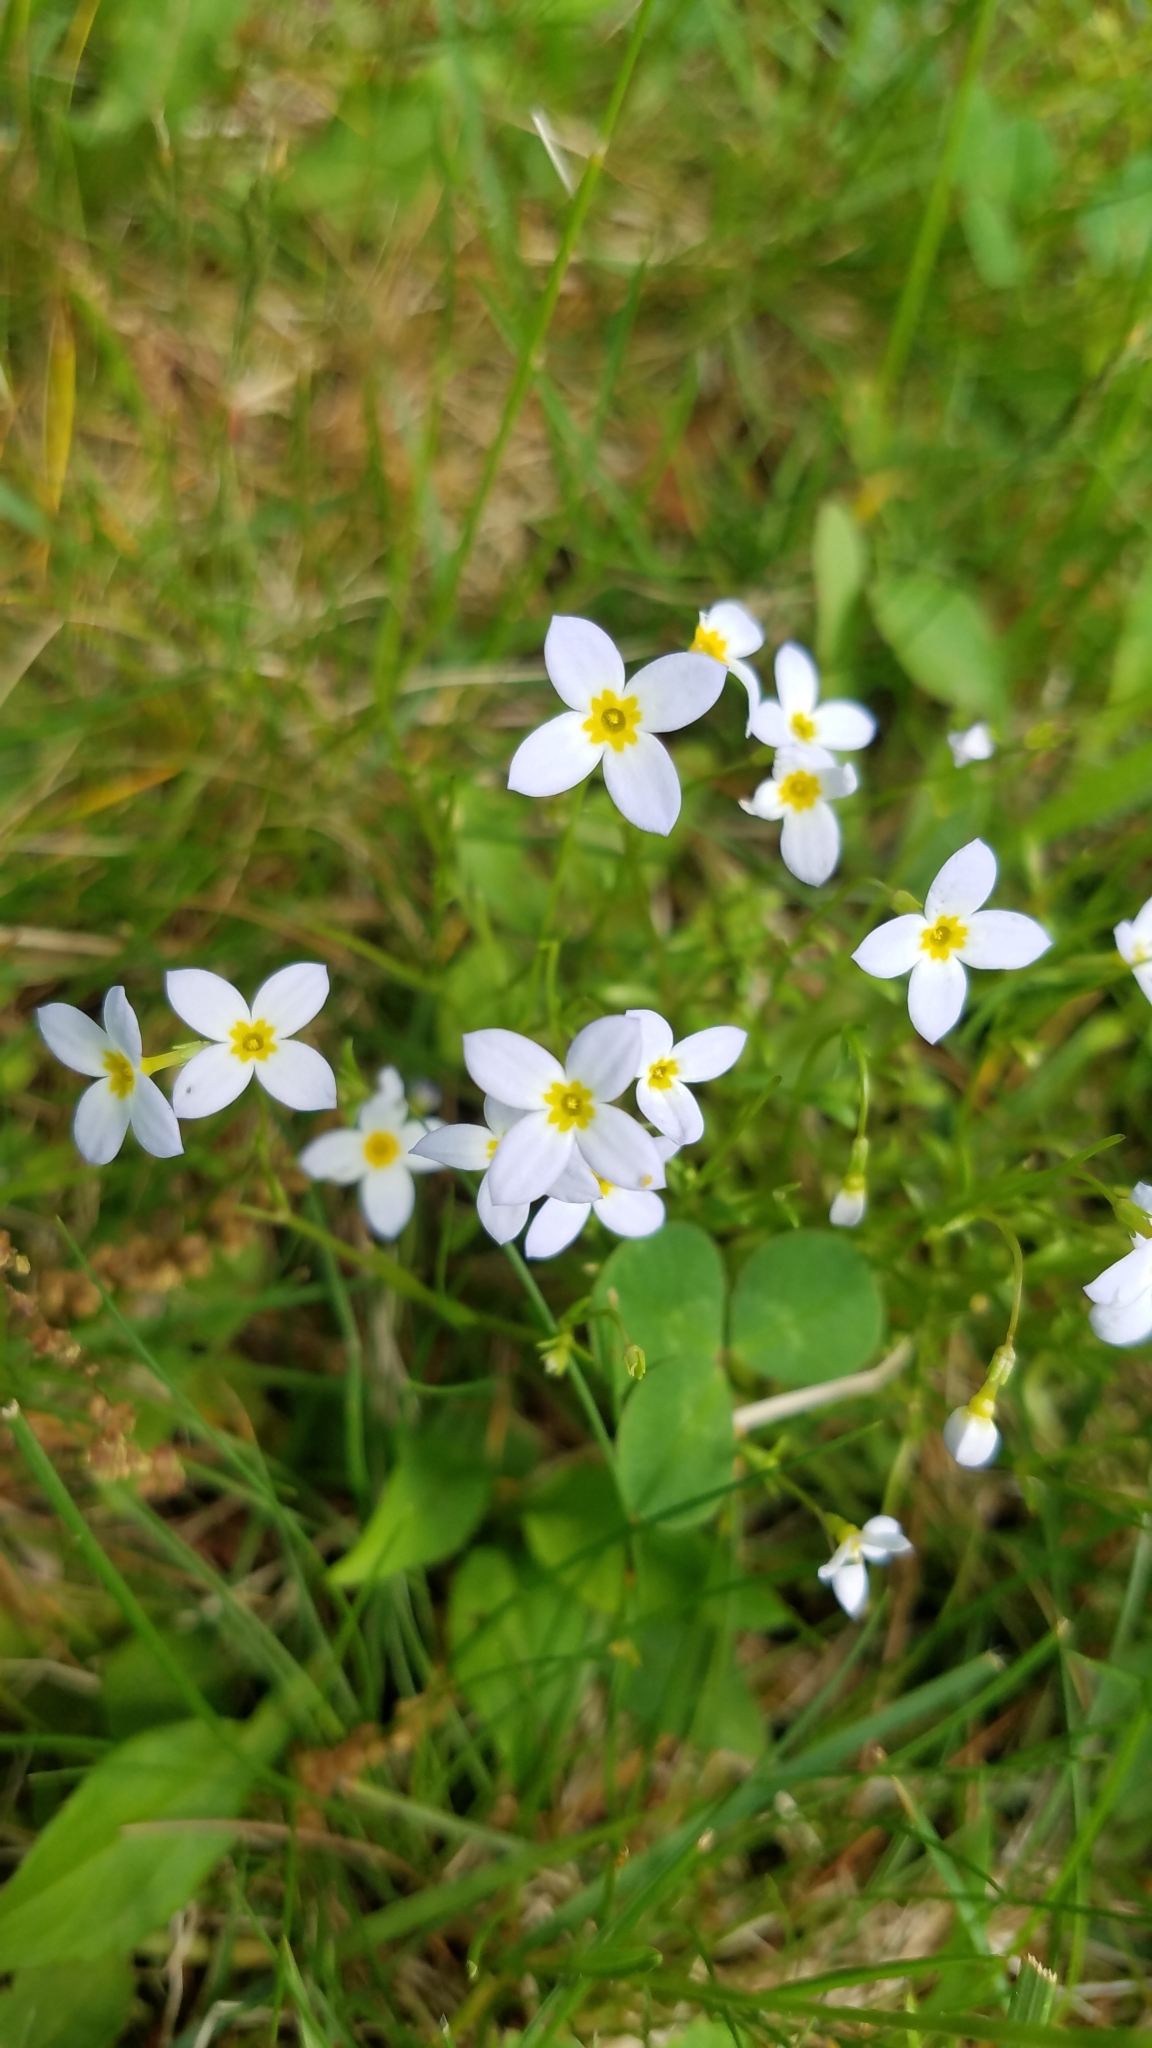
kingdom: Plantae
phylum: Tracheophyta
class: Magnoliopsida
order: Gentianales
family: Rubiaceae
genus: Houstonia
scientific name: Houstonia caerulea
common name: Bluets
